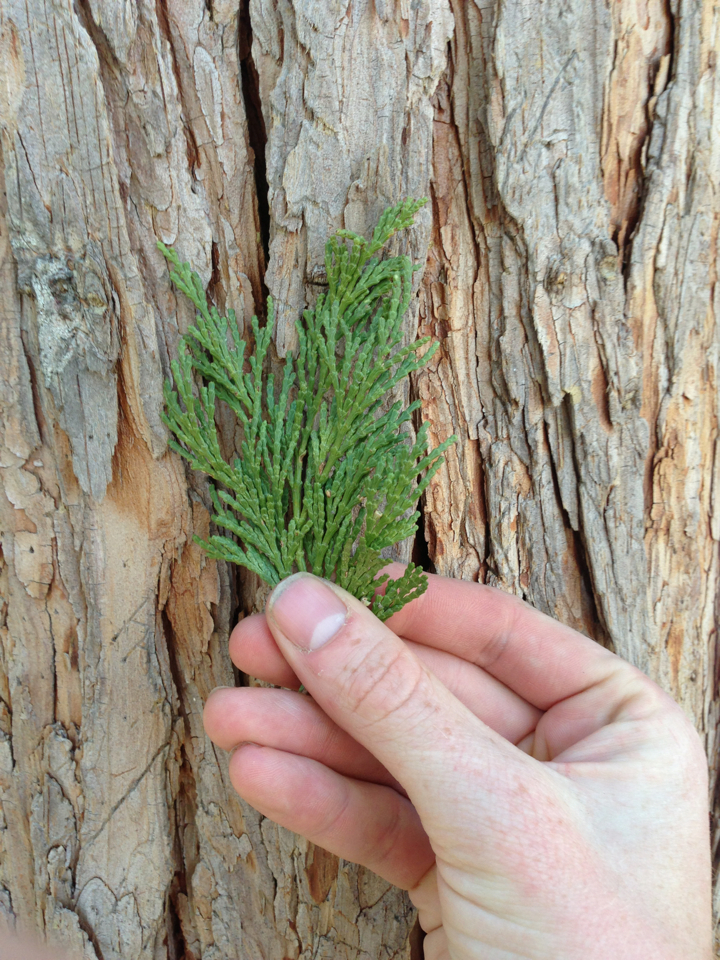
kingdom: Plantae
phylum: Tracheophyta
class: Pinopsida
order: Pinales
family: Cupressaceae
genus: Calocedrus
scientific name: Calocedrus decurrens
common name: Californian incense-cedar
